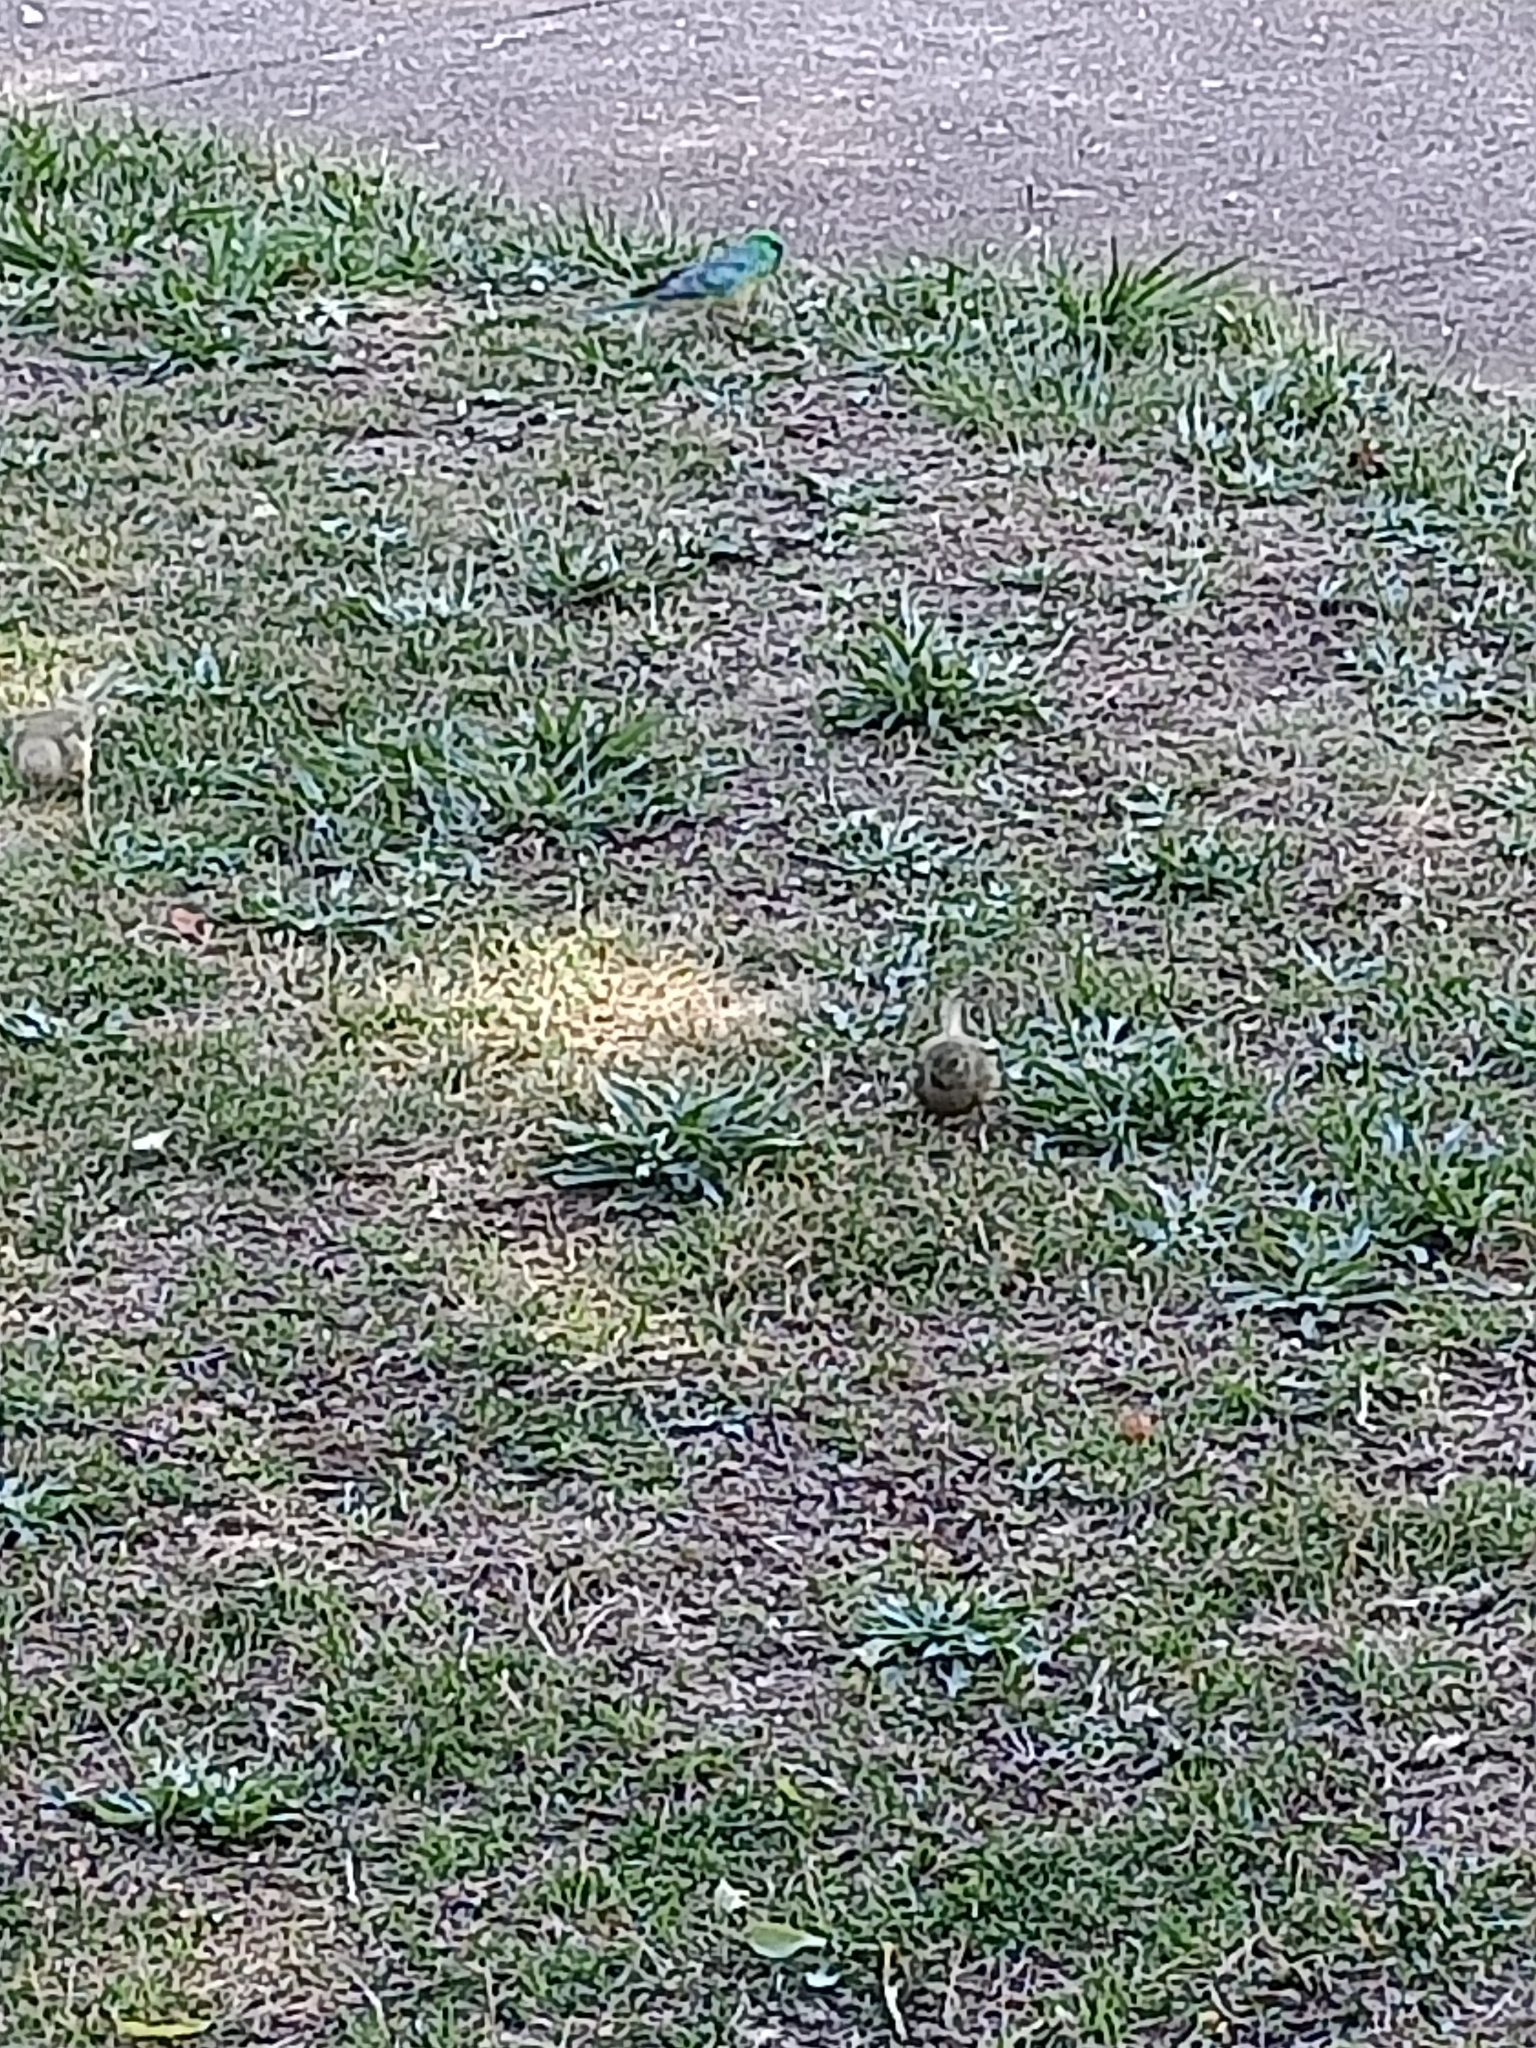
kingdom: Animalia
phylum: Chordata
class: Aves
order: Psittaciformes
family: Psittacidae
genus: Psephotus
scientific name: Psephotus haematonotus
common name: Red-rumped parrot
